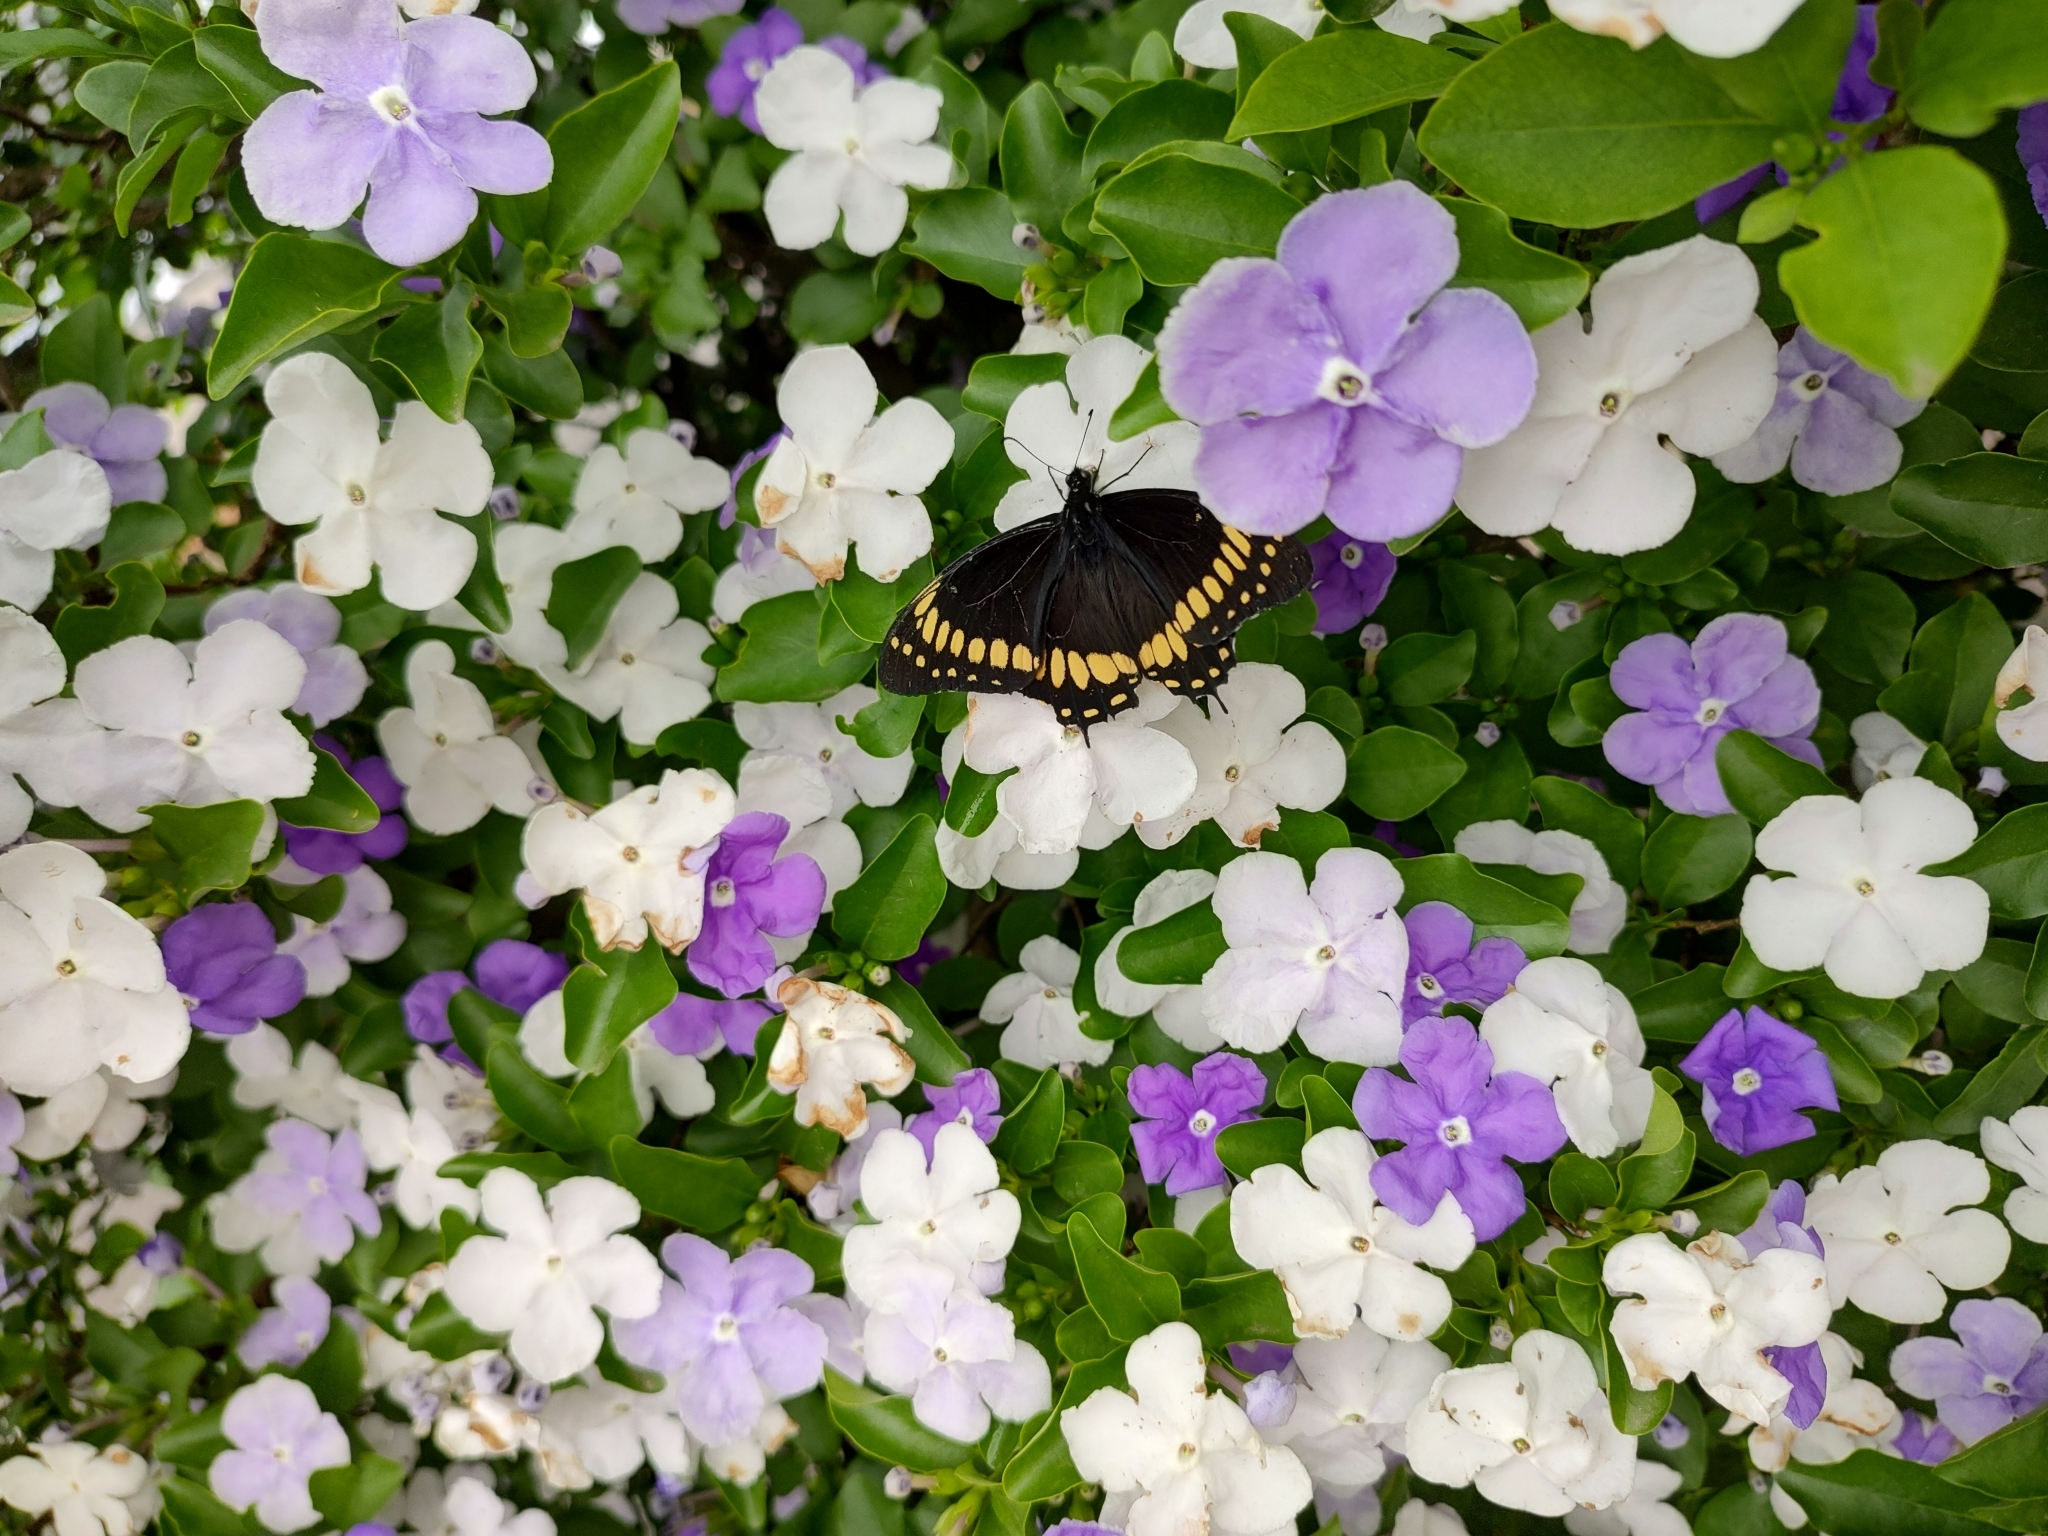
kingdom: Animalia
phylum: Arthropoda
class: Insecta
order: Lepidoptera
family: Papilionidae
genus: Papilio
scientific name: Papilio scamander
